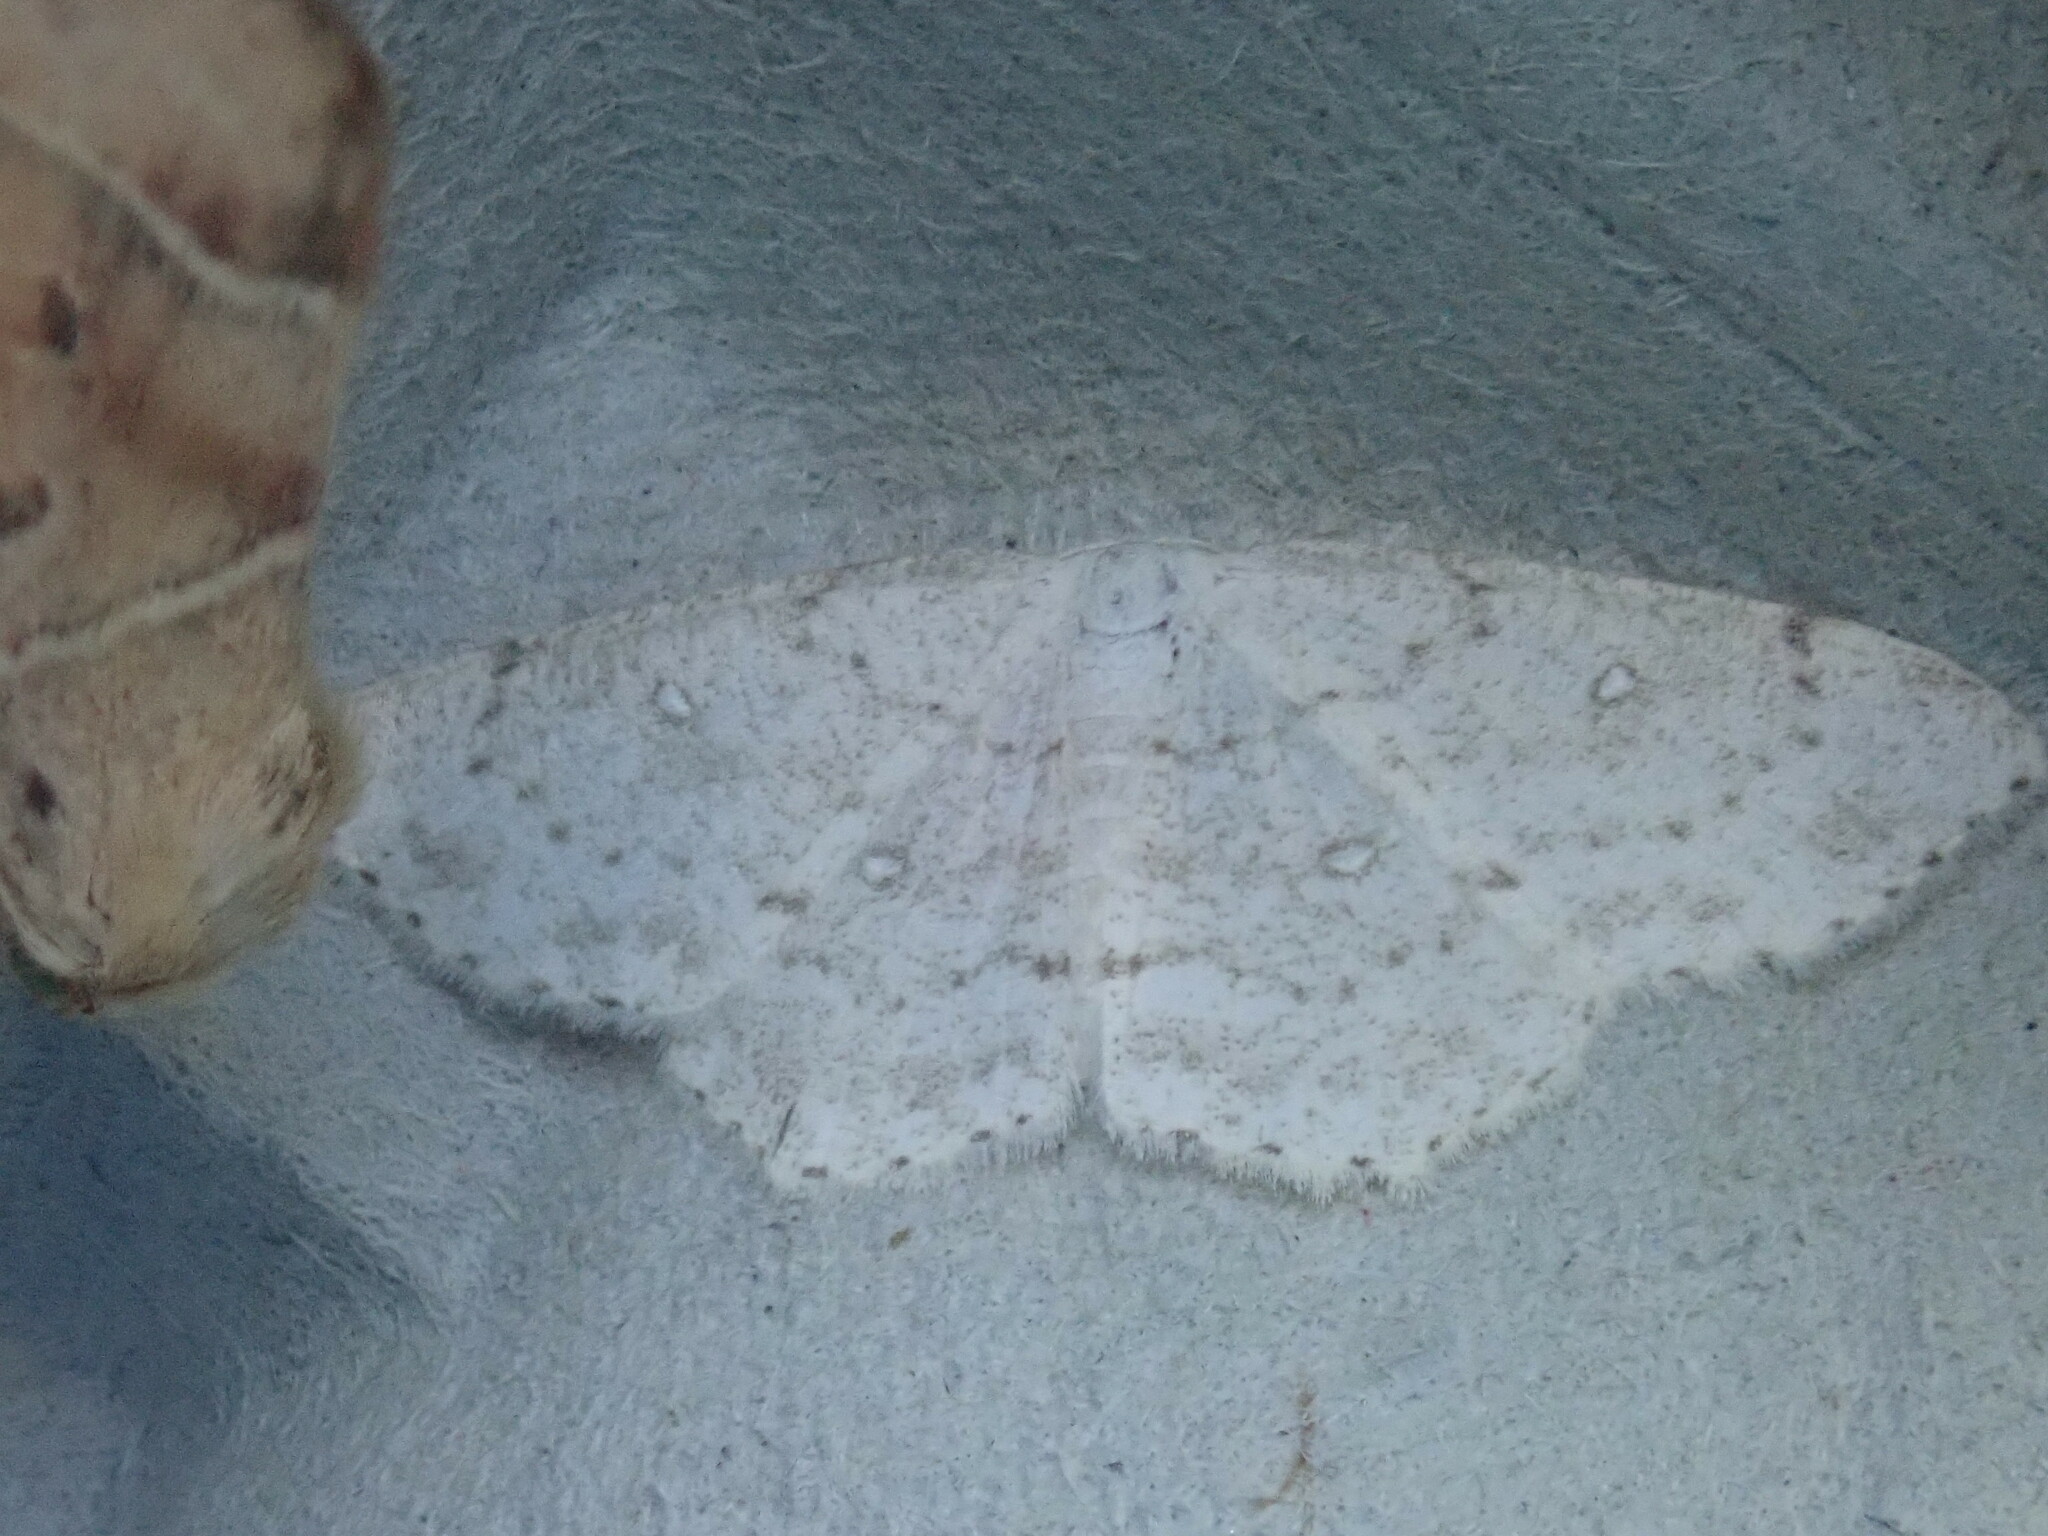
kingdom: Animalia
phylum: Arthropoda
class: Insecta
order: Lepidoptera
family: Geometridae
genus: Cyclophora
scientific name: Cyclophora pendulinaria
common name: Sweet fern geometer
